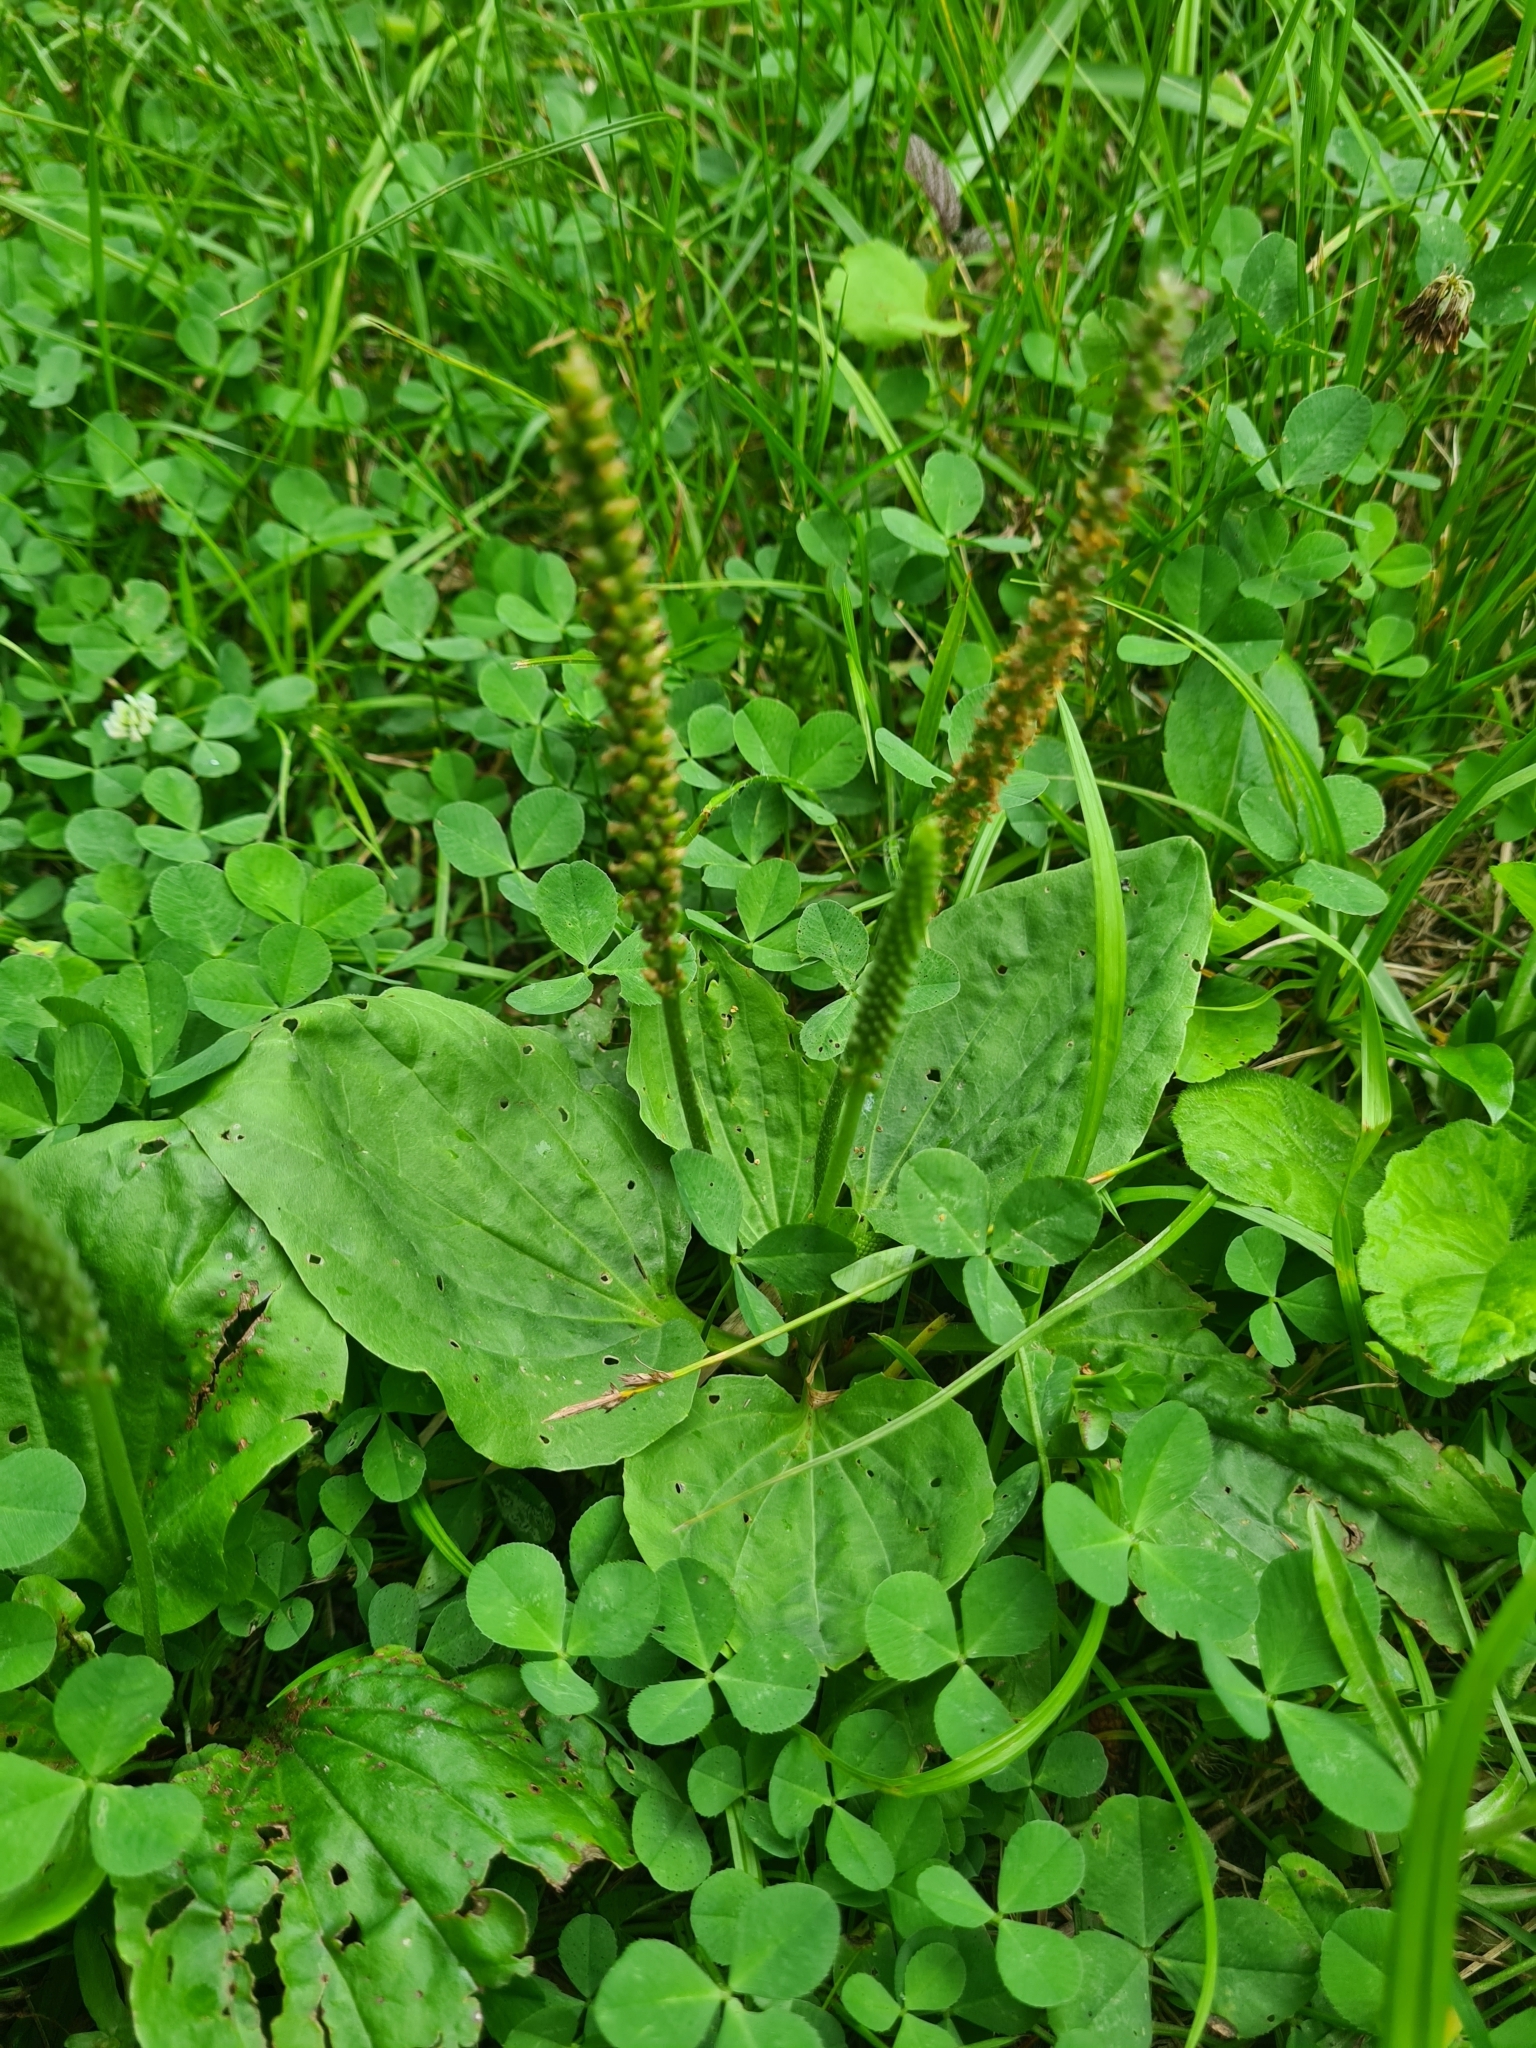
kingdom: Plantae
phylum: Tracheophyta
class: Magnoliopsida
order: Lamiales
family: Plantaginaceae
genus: Plantago
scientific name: Plantago major
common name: Common plantain
